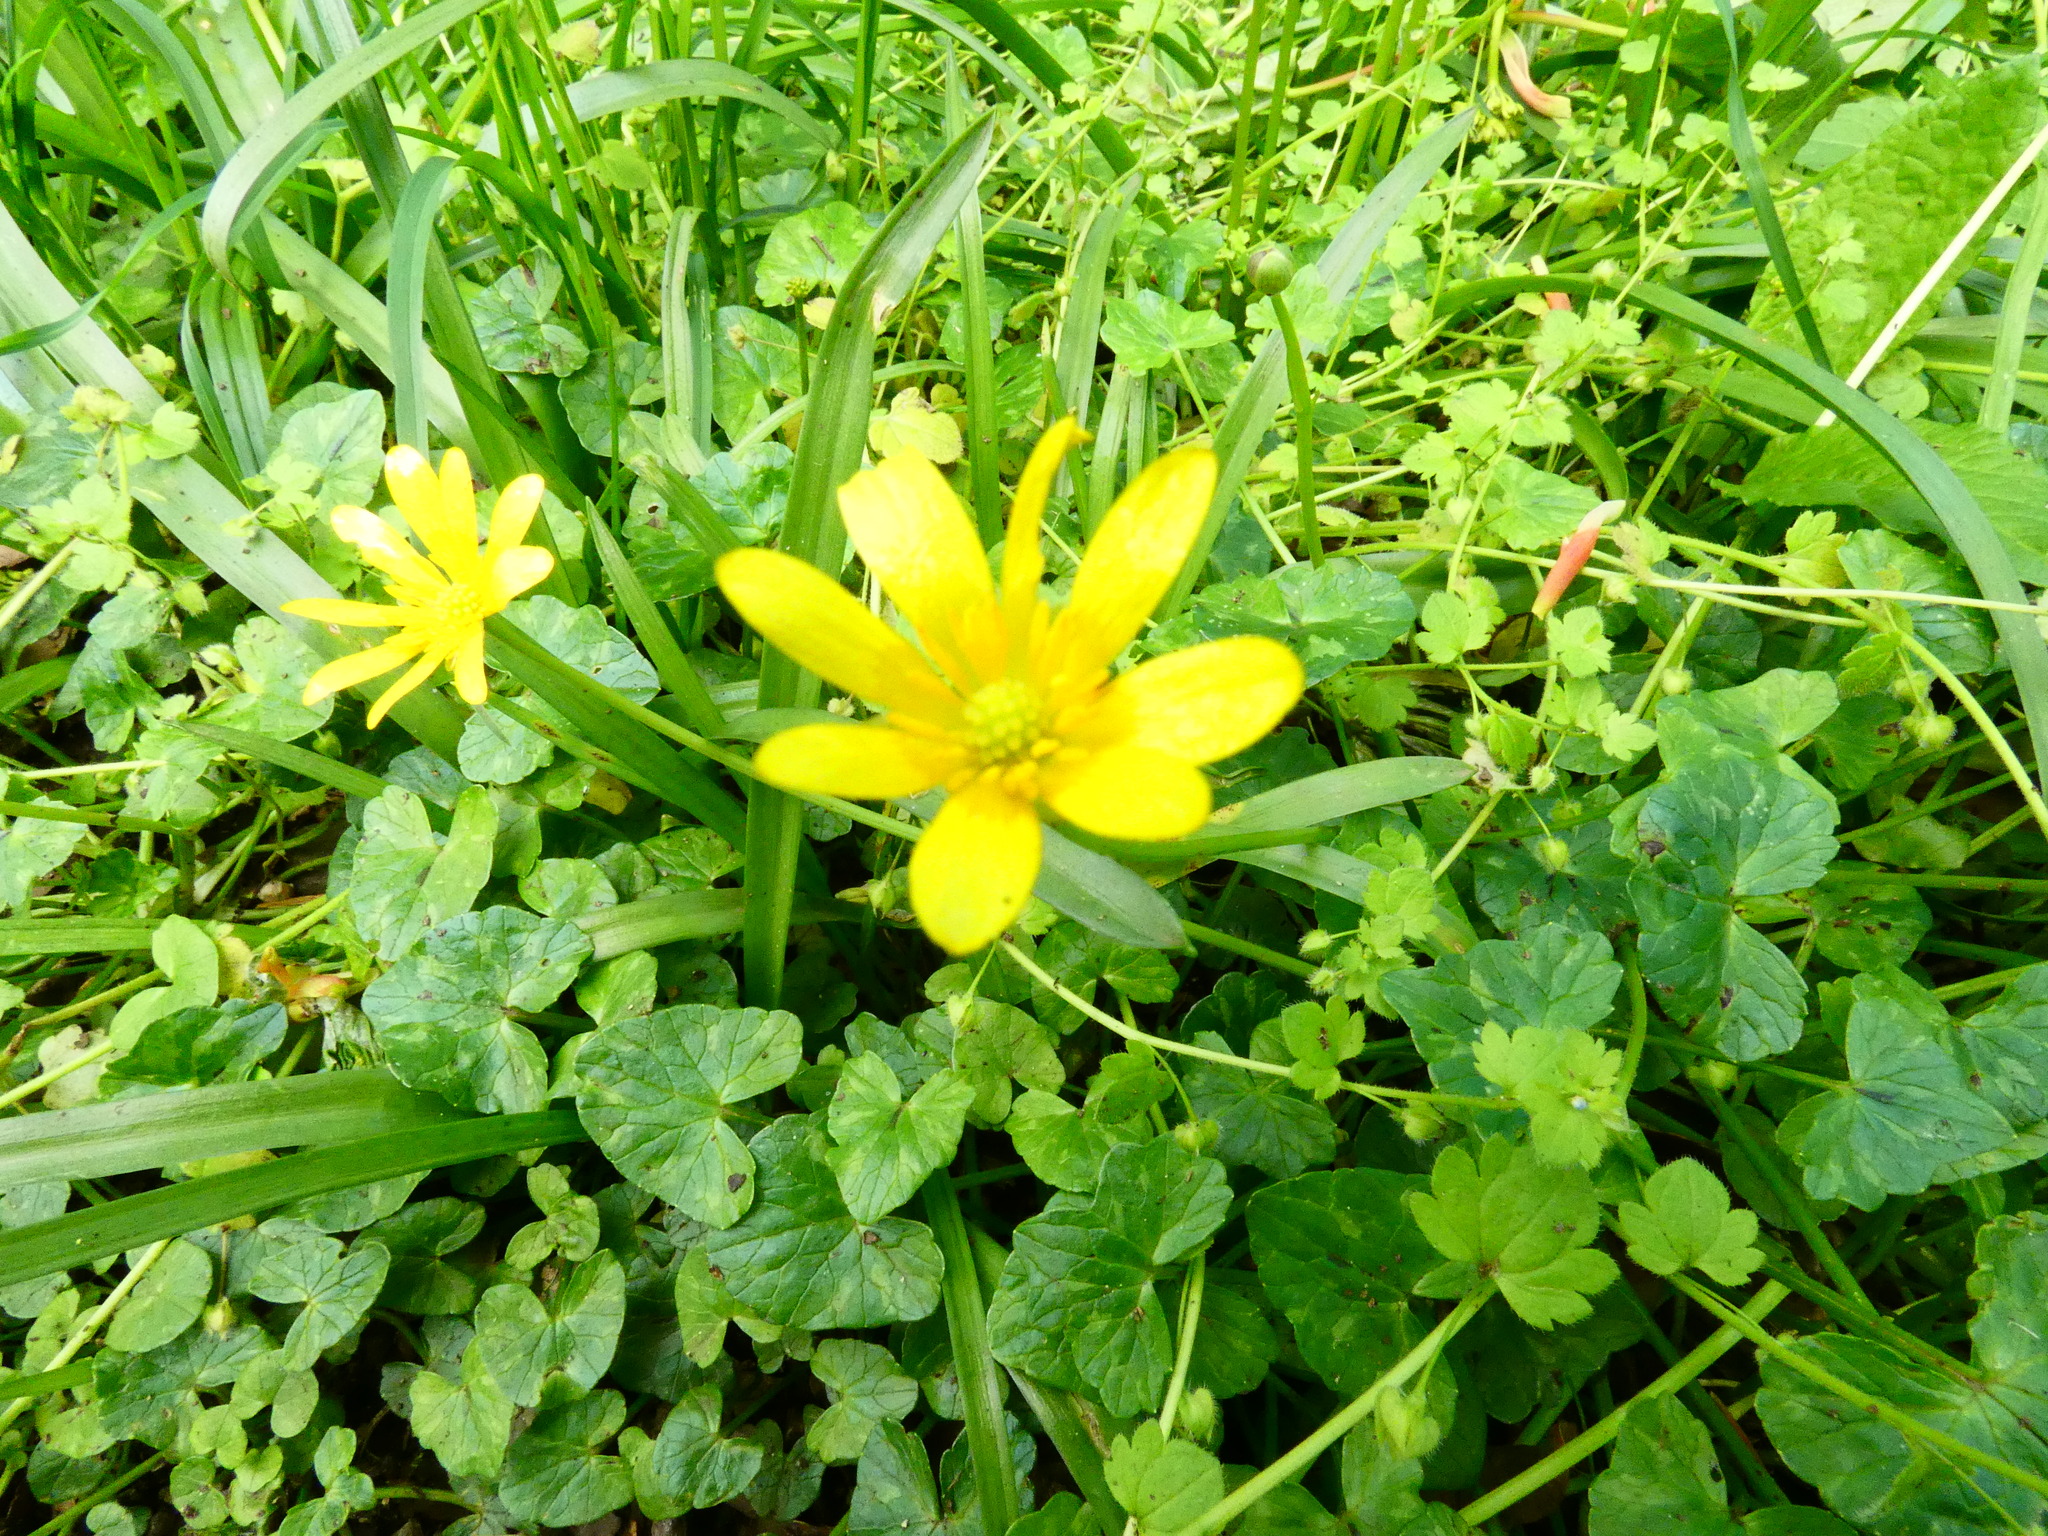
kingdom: Plantae
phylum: Tracheophyta
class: Magnoliopsida
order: Ranunculales
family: Ranunculaceae
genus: Ficaria
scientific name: Ficaria verna
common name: Lesser celandine
